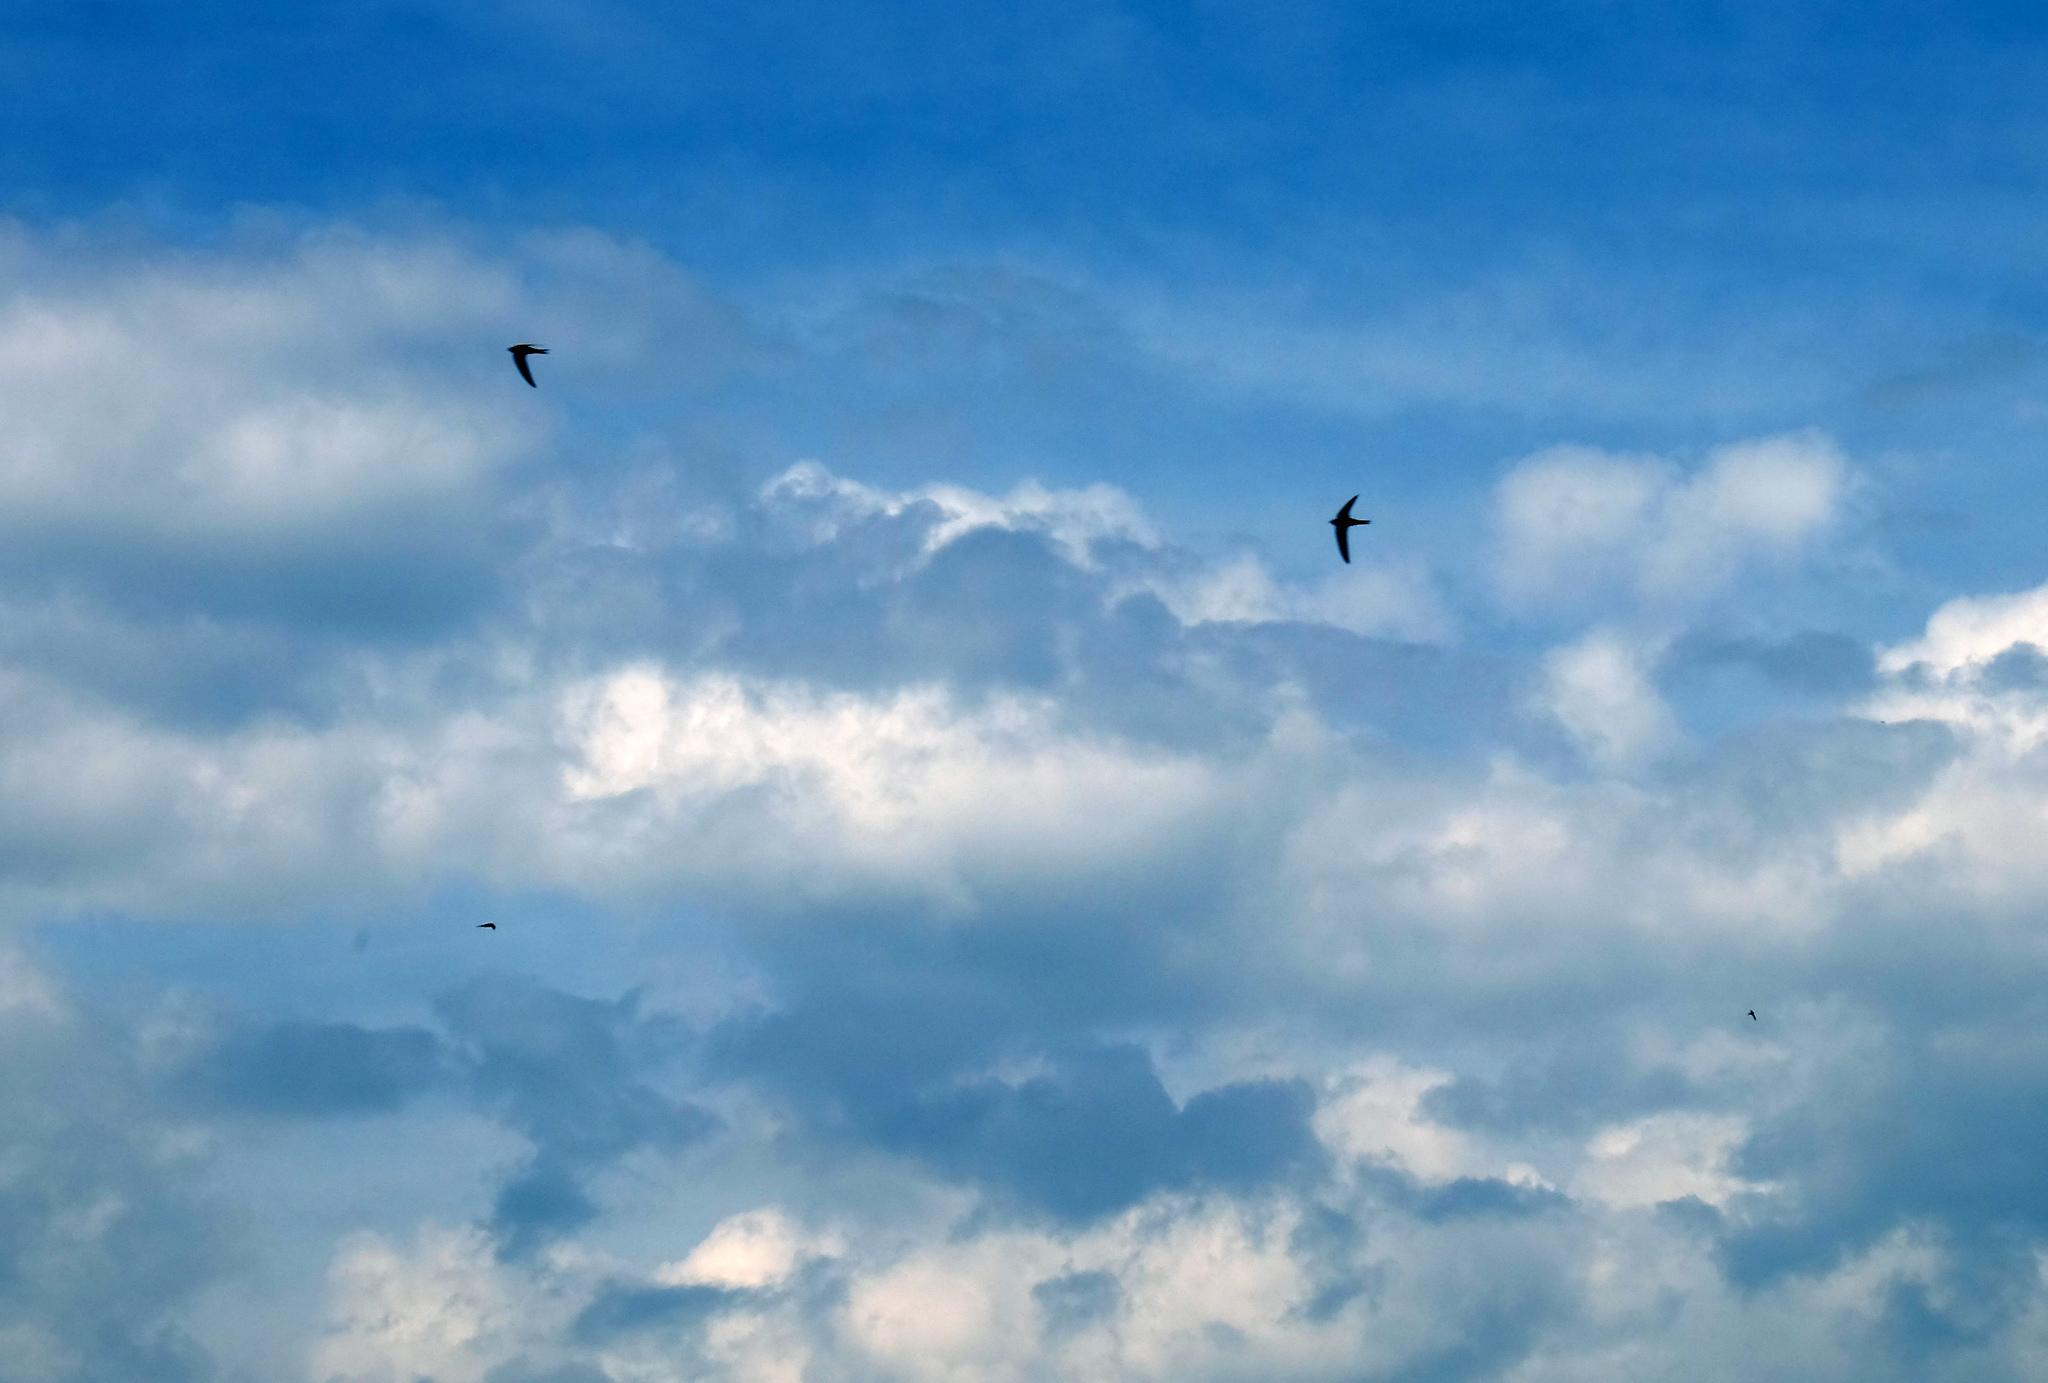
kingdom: Animalia
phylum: Chordata
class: Aves
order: Apodiformes
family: Apodidae
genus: Apus
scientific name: Apus apus
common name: Common swift
